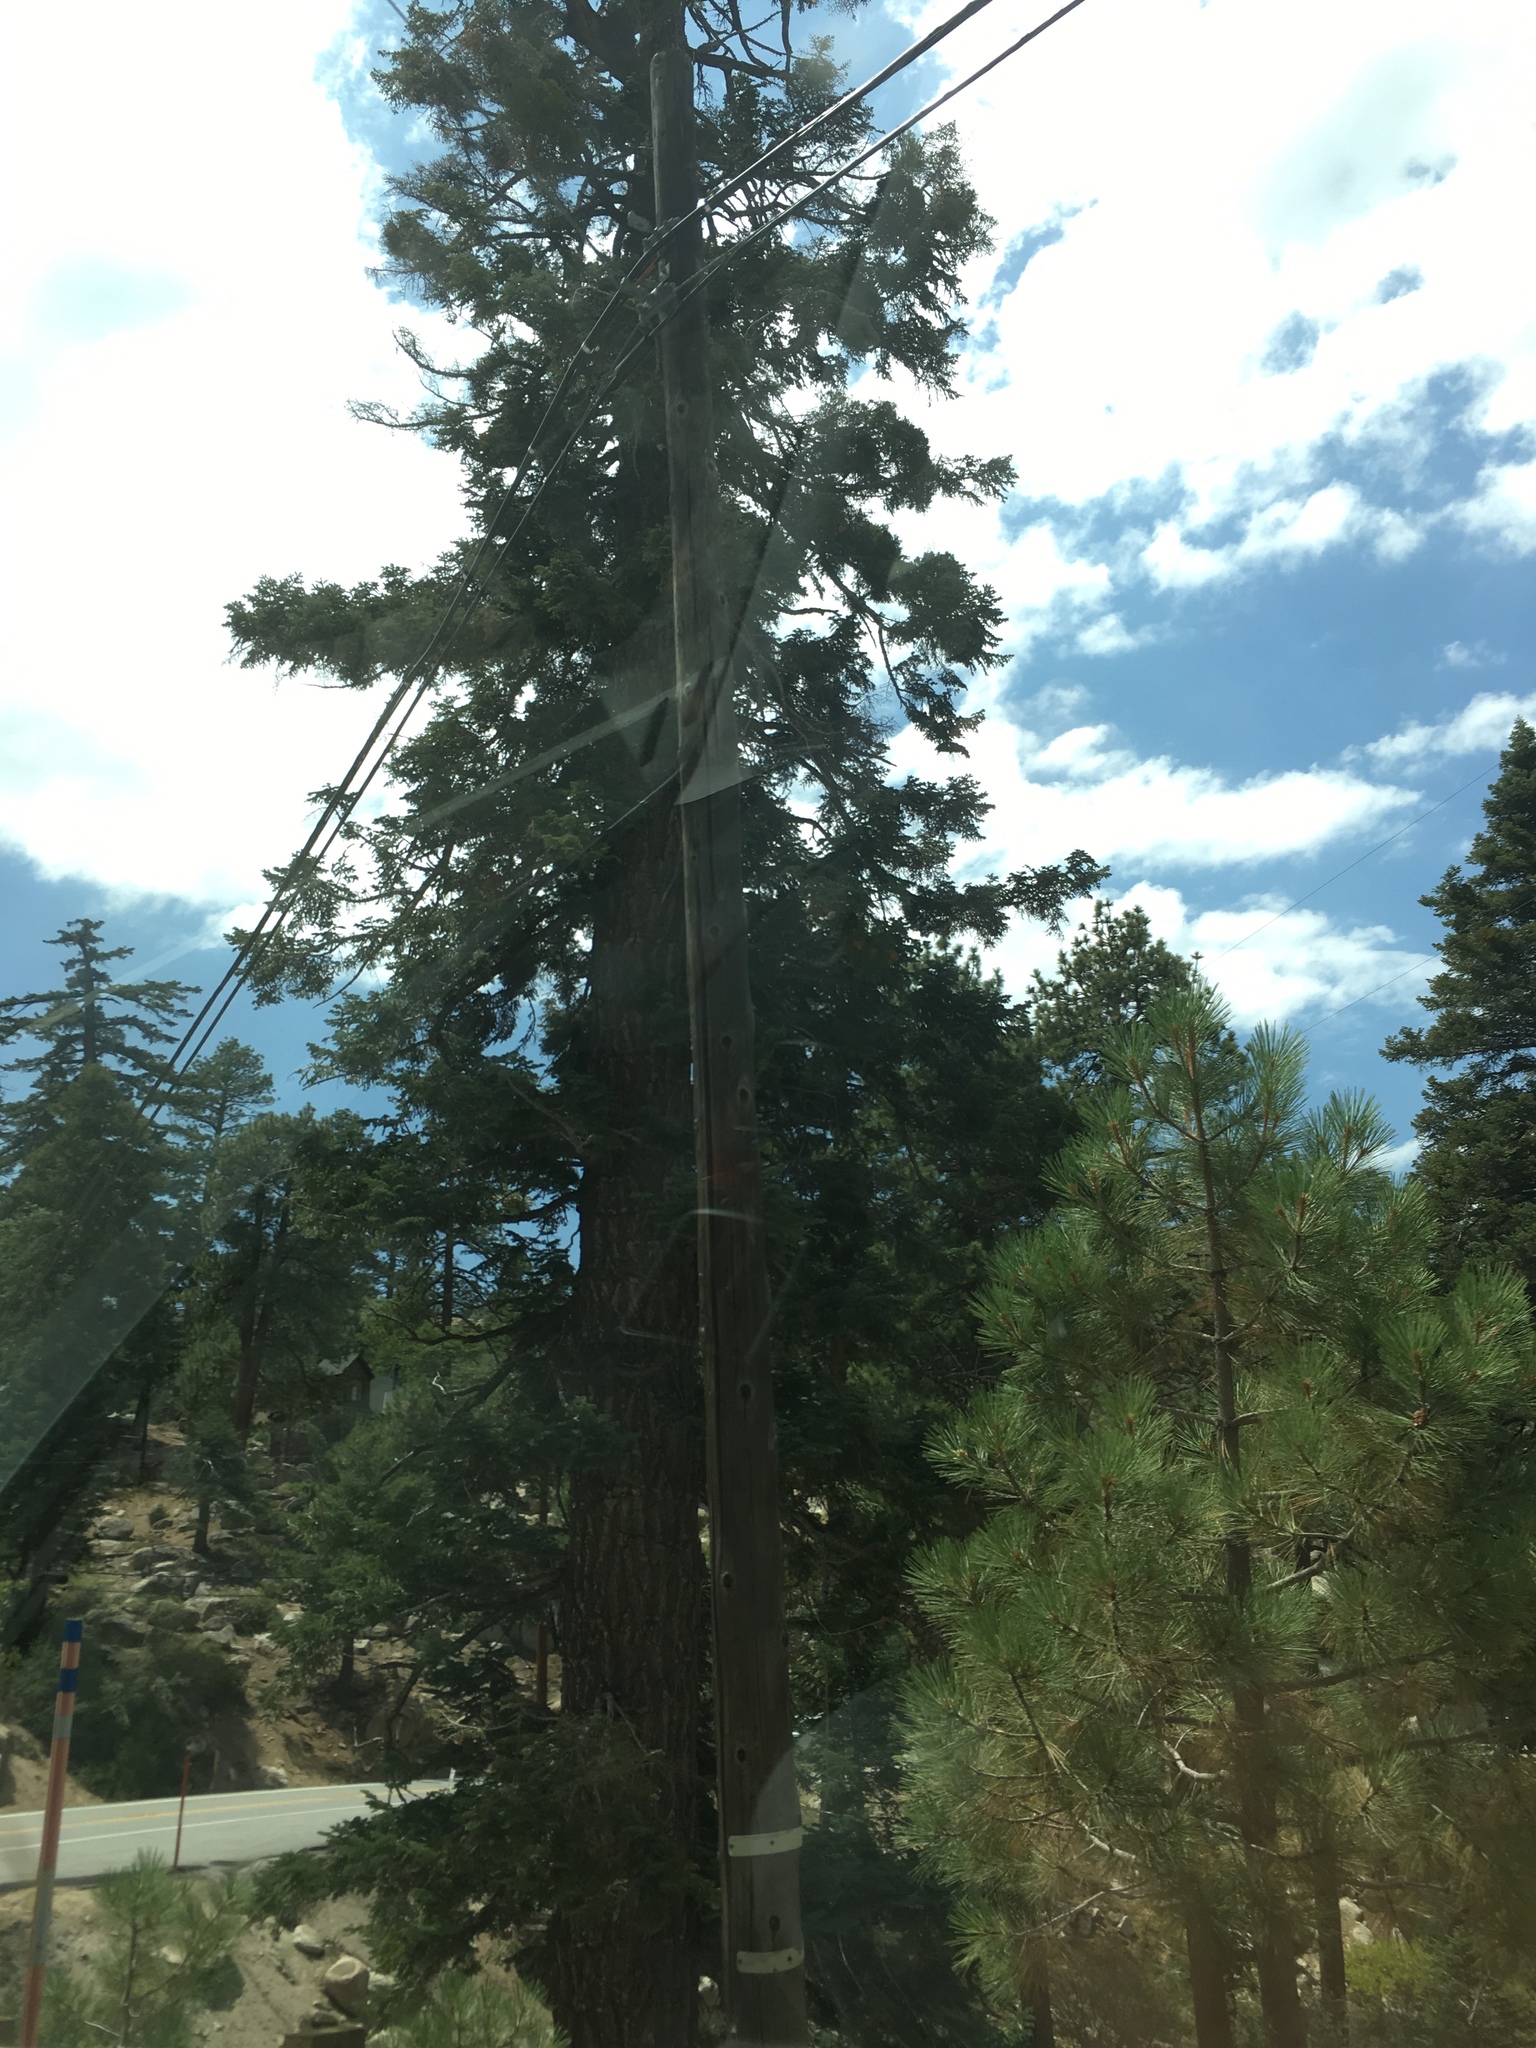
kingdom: Plantae
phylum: Tracheophyta
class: Pinopsida
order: Pinales
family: Pinaceae
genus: Abies
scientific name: Abies concolor
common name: Colorado fir
